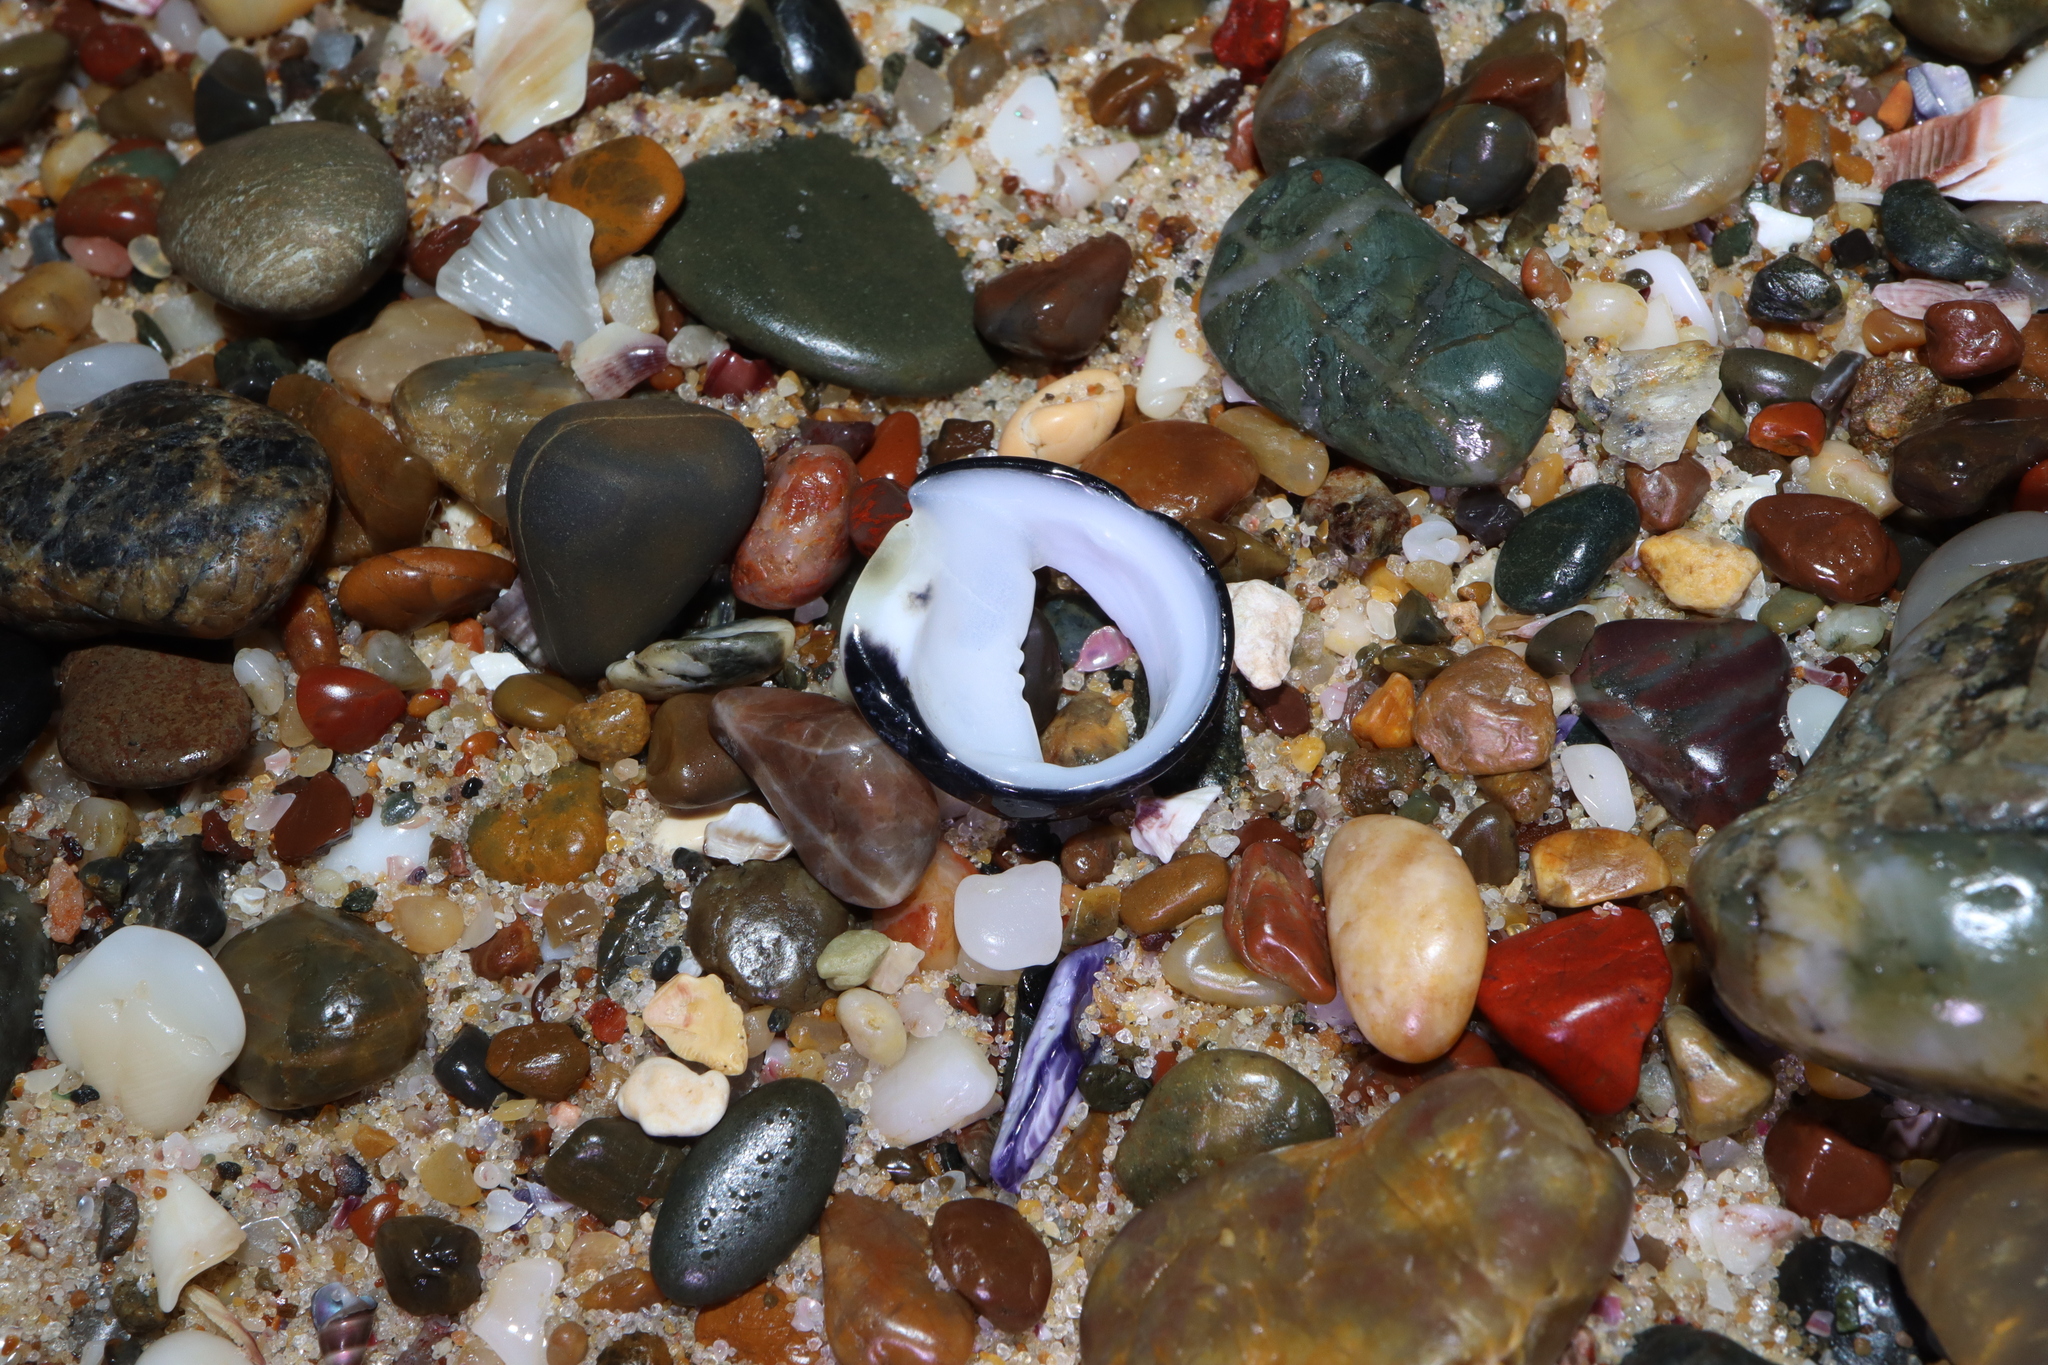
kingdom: Animalia
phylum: Mollusca
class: Gastropoda
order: Cycloneritida
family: Neritidae
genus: Nerita
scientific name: Nerita melanotragus
